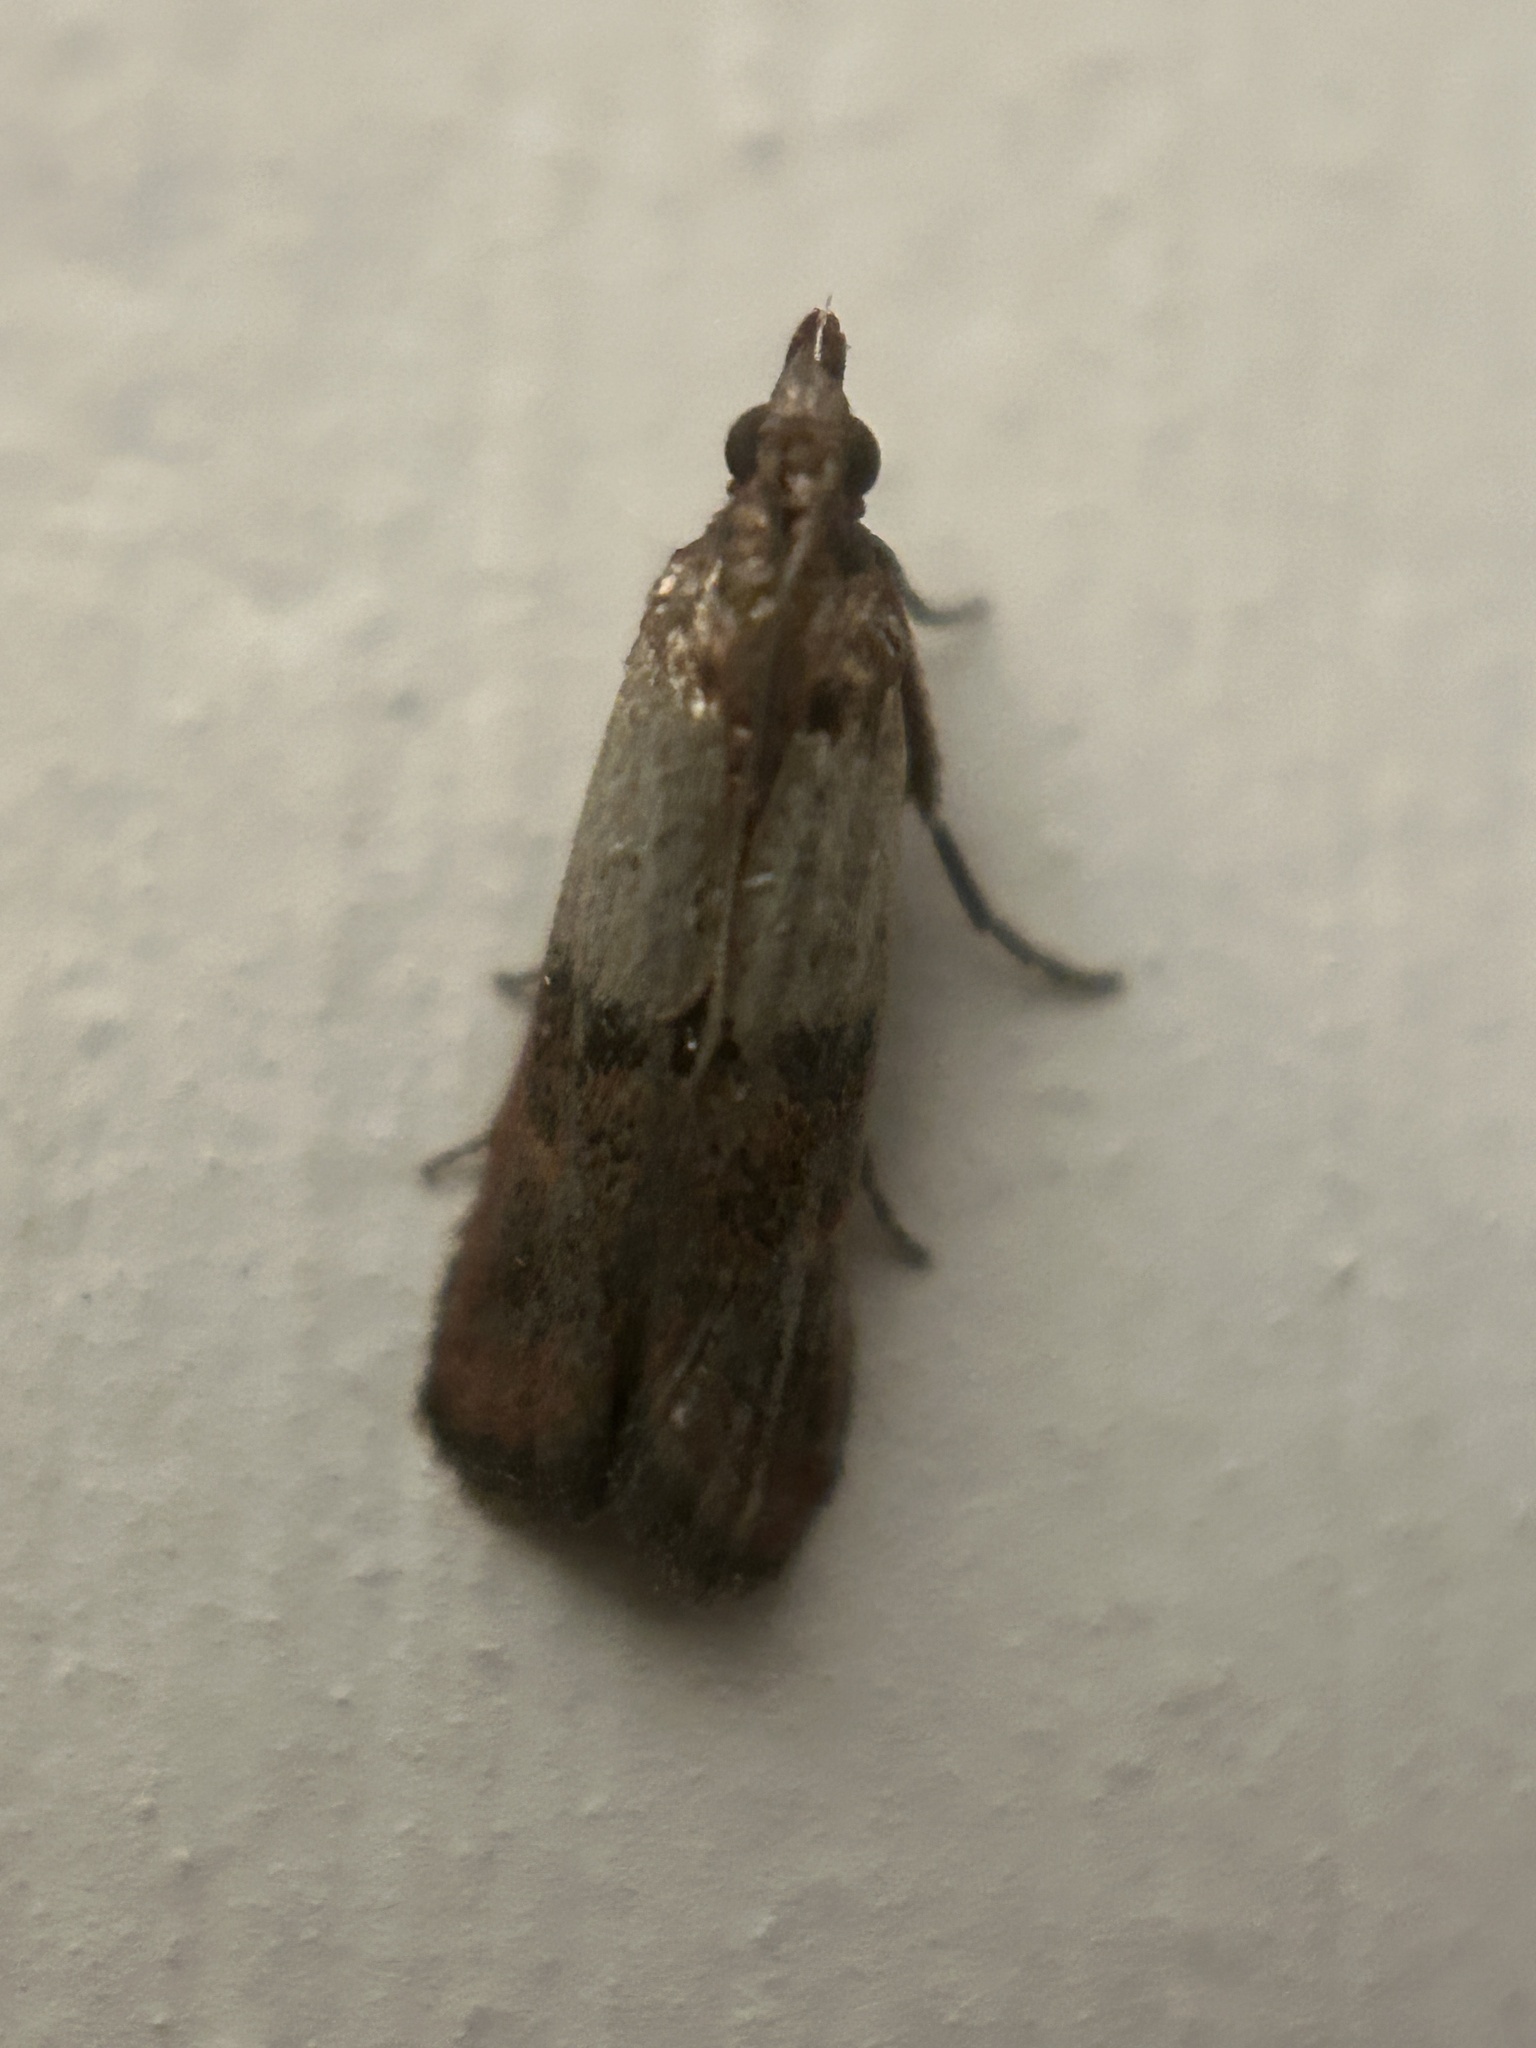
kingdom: Animalia
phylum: Arthropoda
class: Insecta
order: Lepidoptera
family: Pyralidae
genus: Plodia
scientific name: Plodia interpunctella
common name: Indian meal moth
